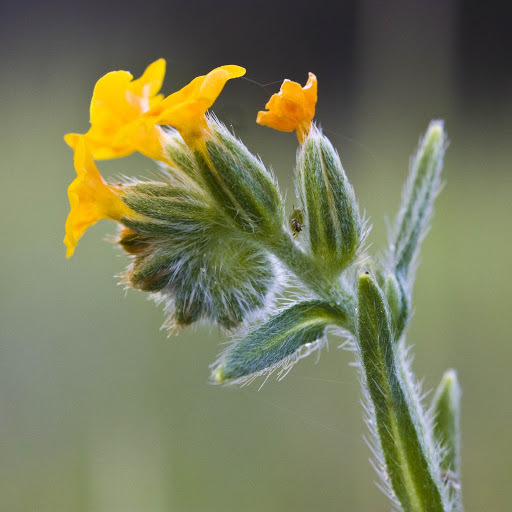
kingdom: Plantae
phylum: Tracheophyta
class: Magnoliopsida
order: Boraginales
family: Boraginaceae
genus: Amsinckia
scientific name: Amsinckia menziesii
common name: Menzies' fiddleneck
